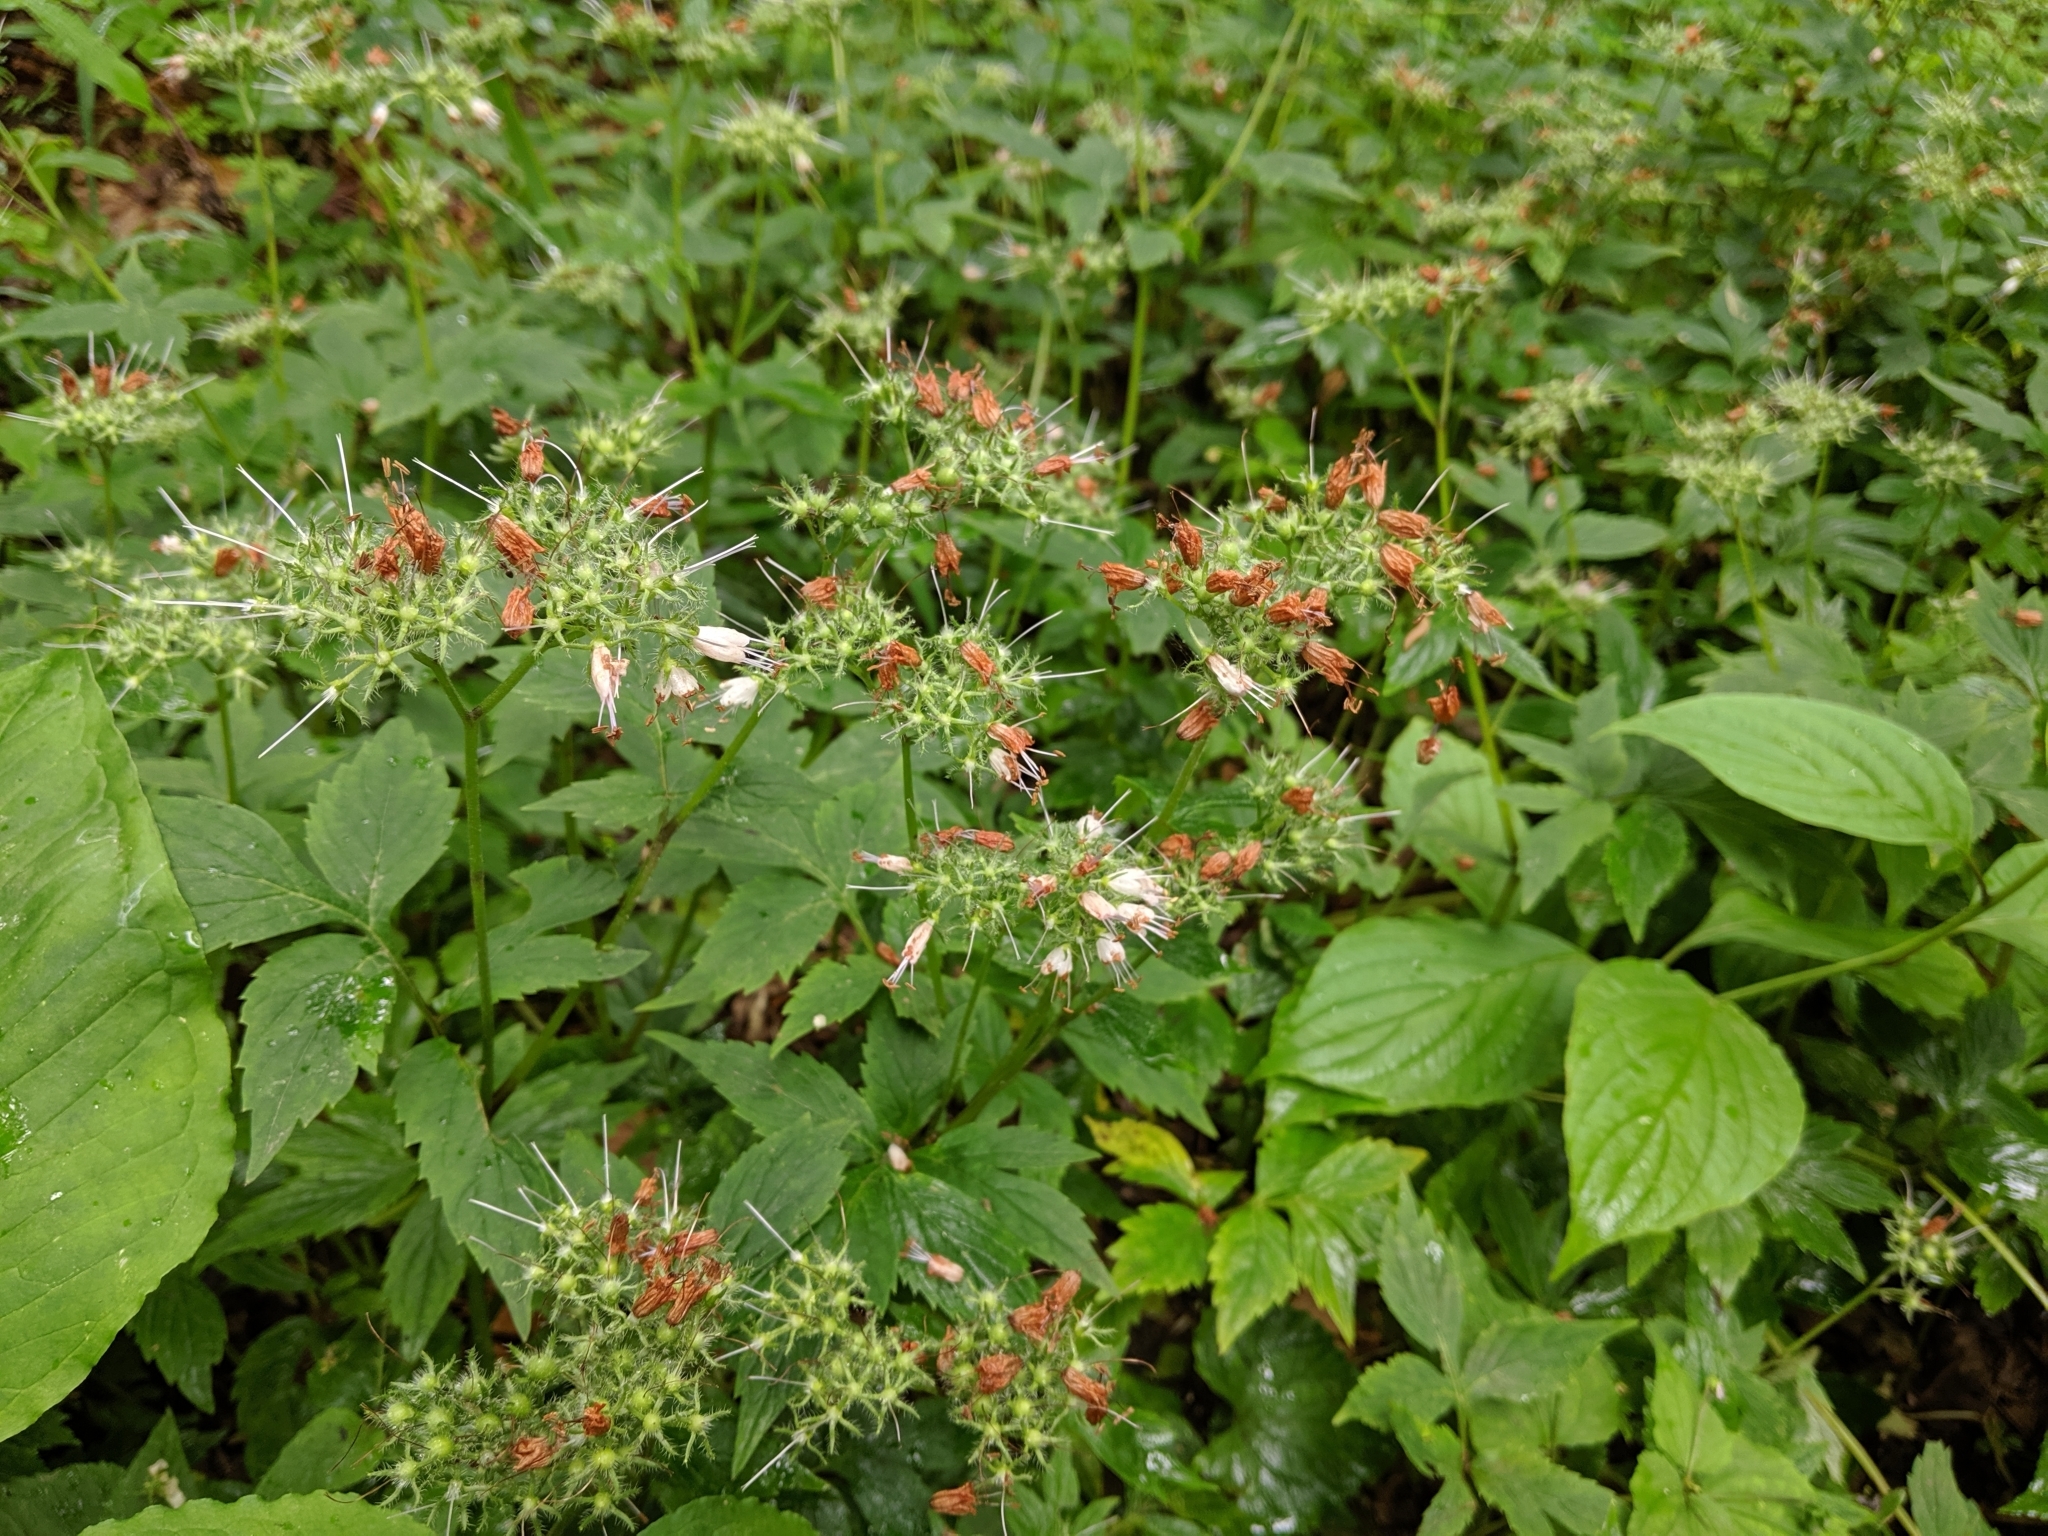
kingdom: Plantae
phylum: Tracheophyta
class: Magnoliopsida
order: Boraginales
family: Hydrophyllaceae
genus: Hydrophyllum
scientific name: Hydrophyllum virginianum
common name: Virginia waterleaf
